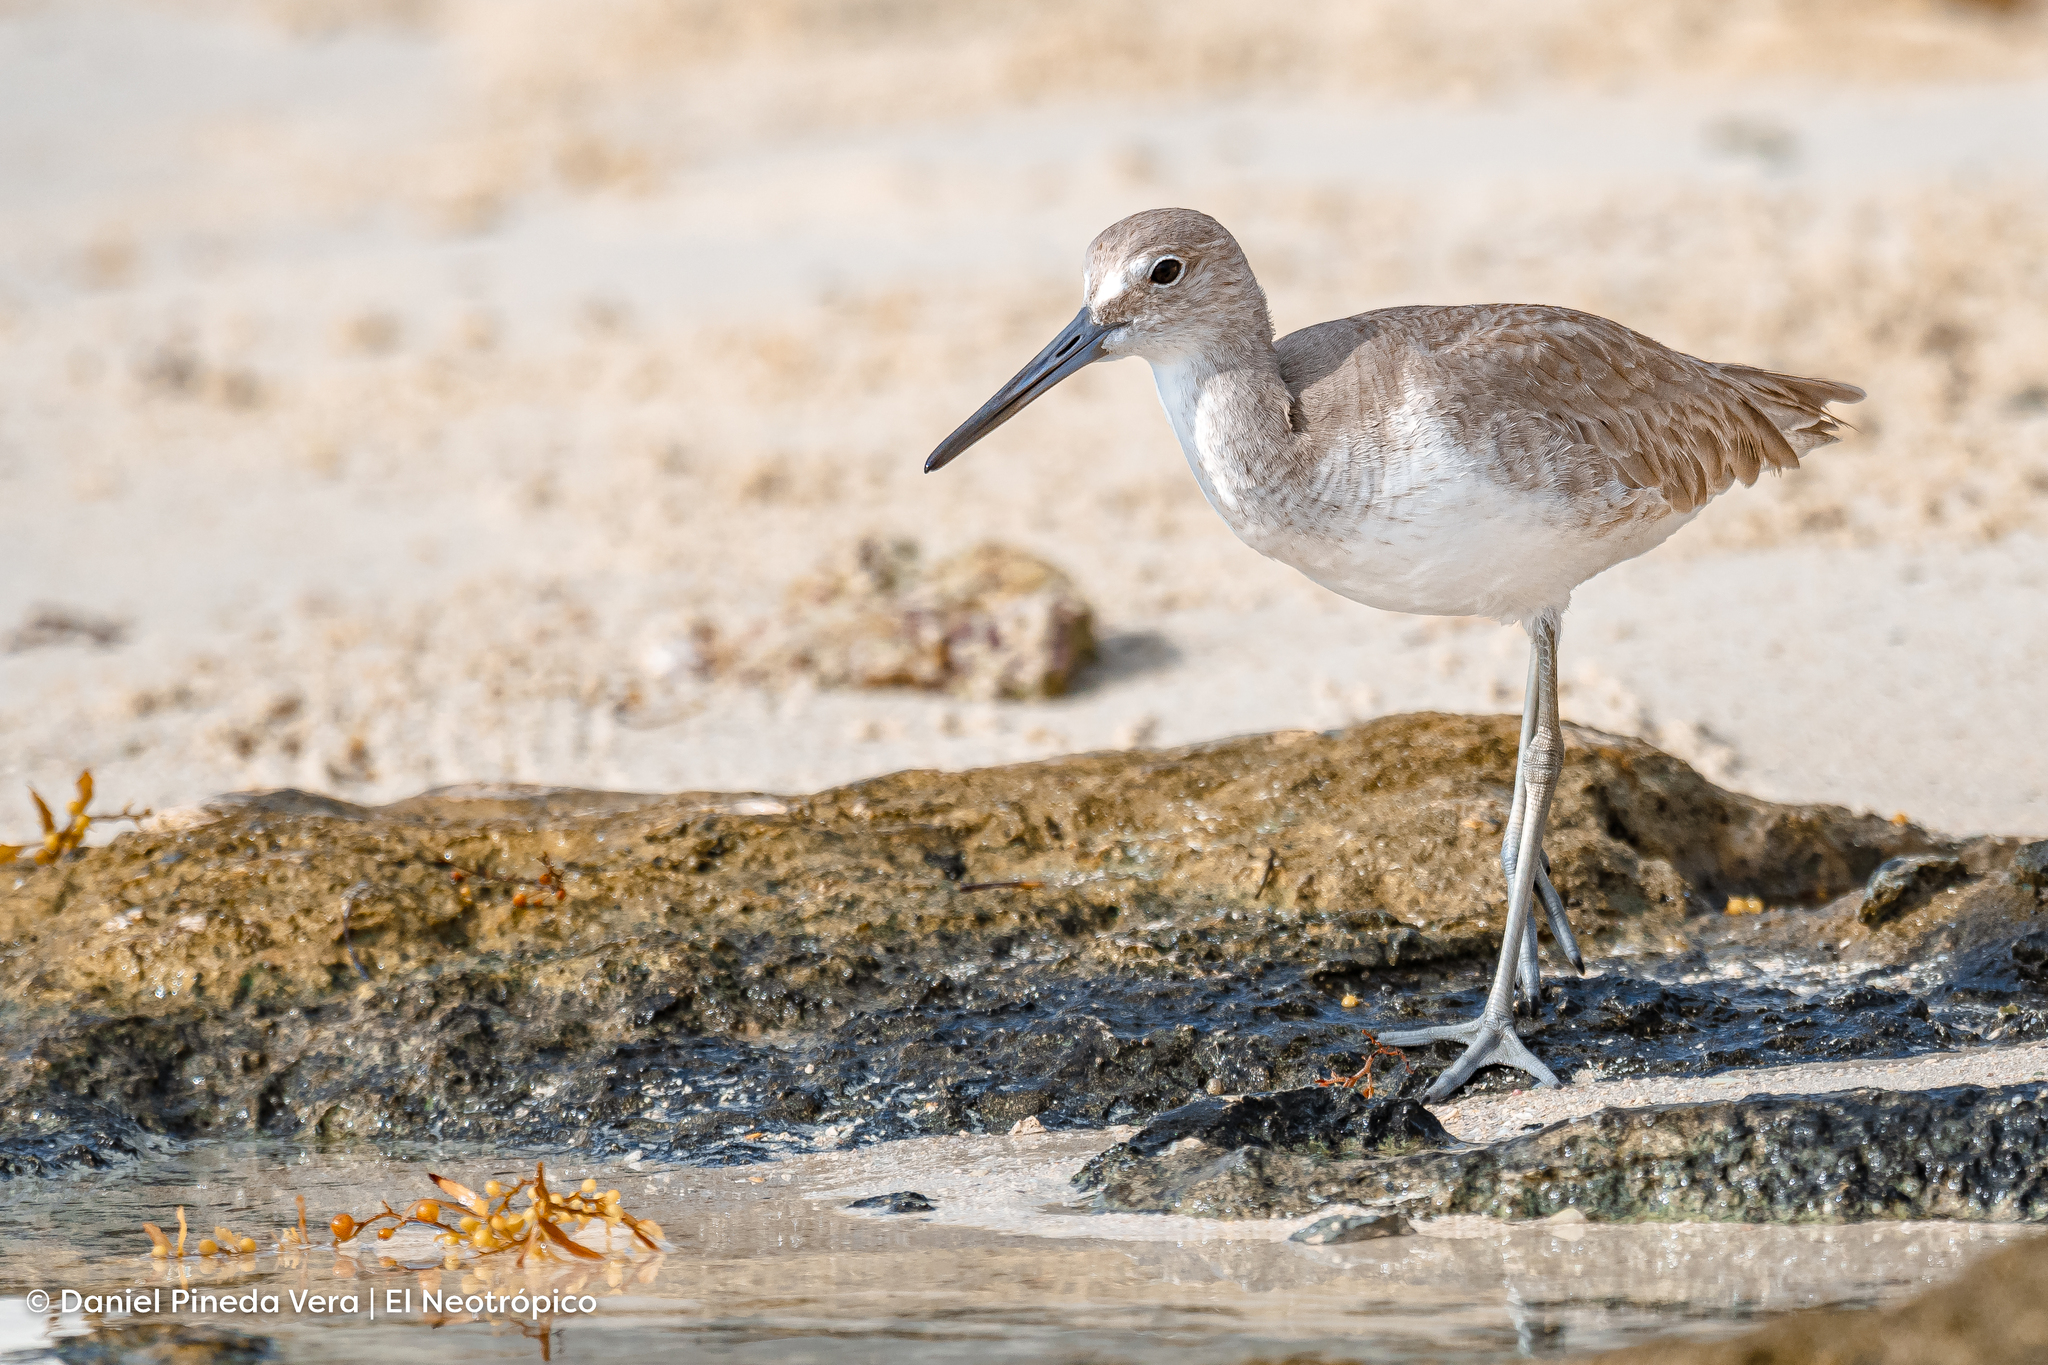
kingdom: Animalia
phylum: Chordata
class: Aves
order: Charadriiformes
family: Scolopacidae
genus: Tringa
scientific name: Tringa semipalmata
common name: Willet
